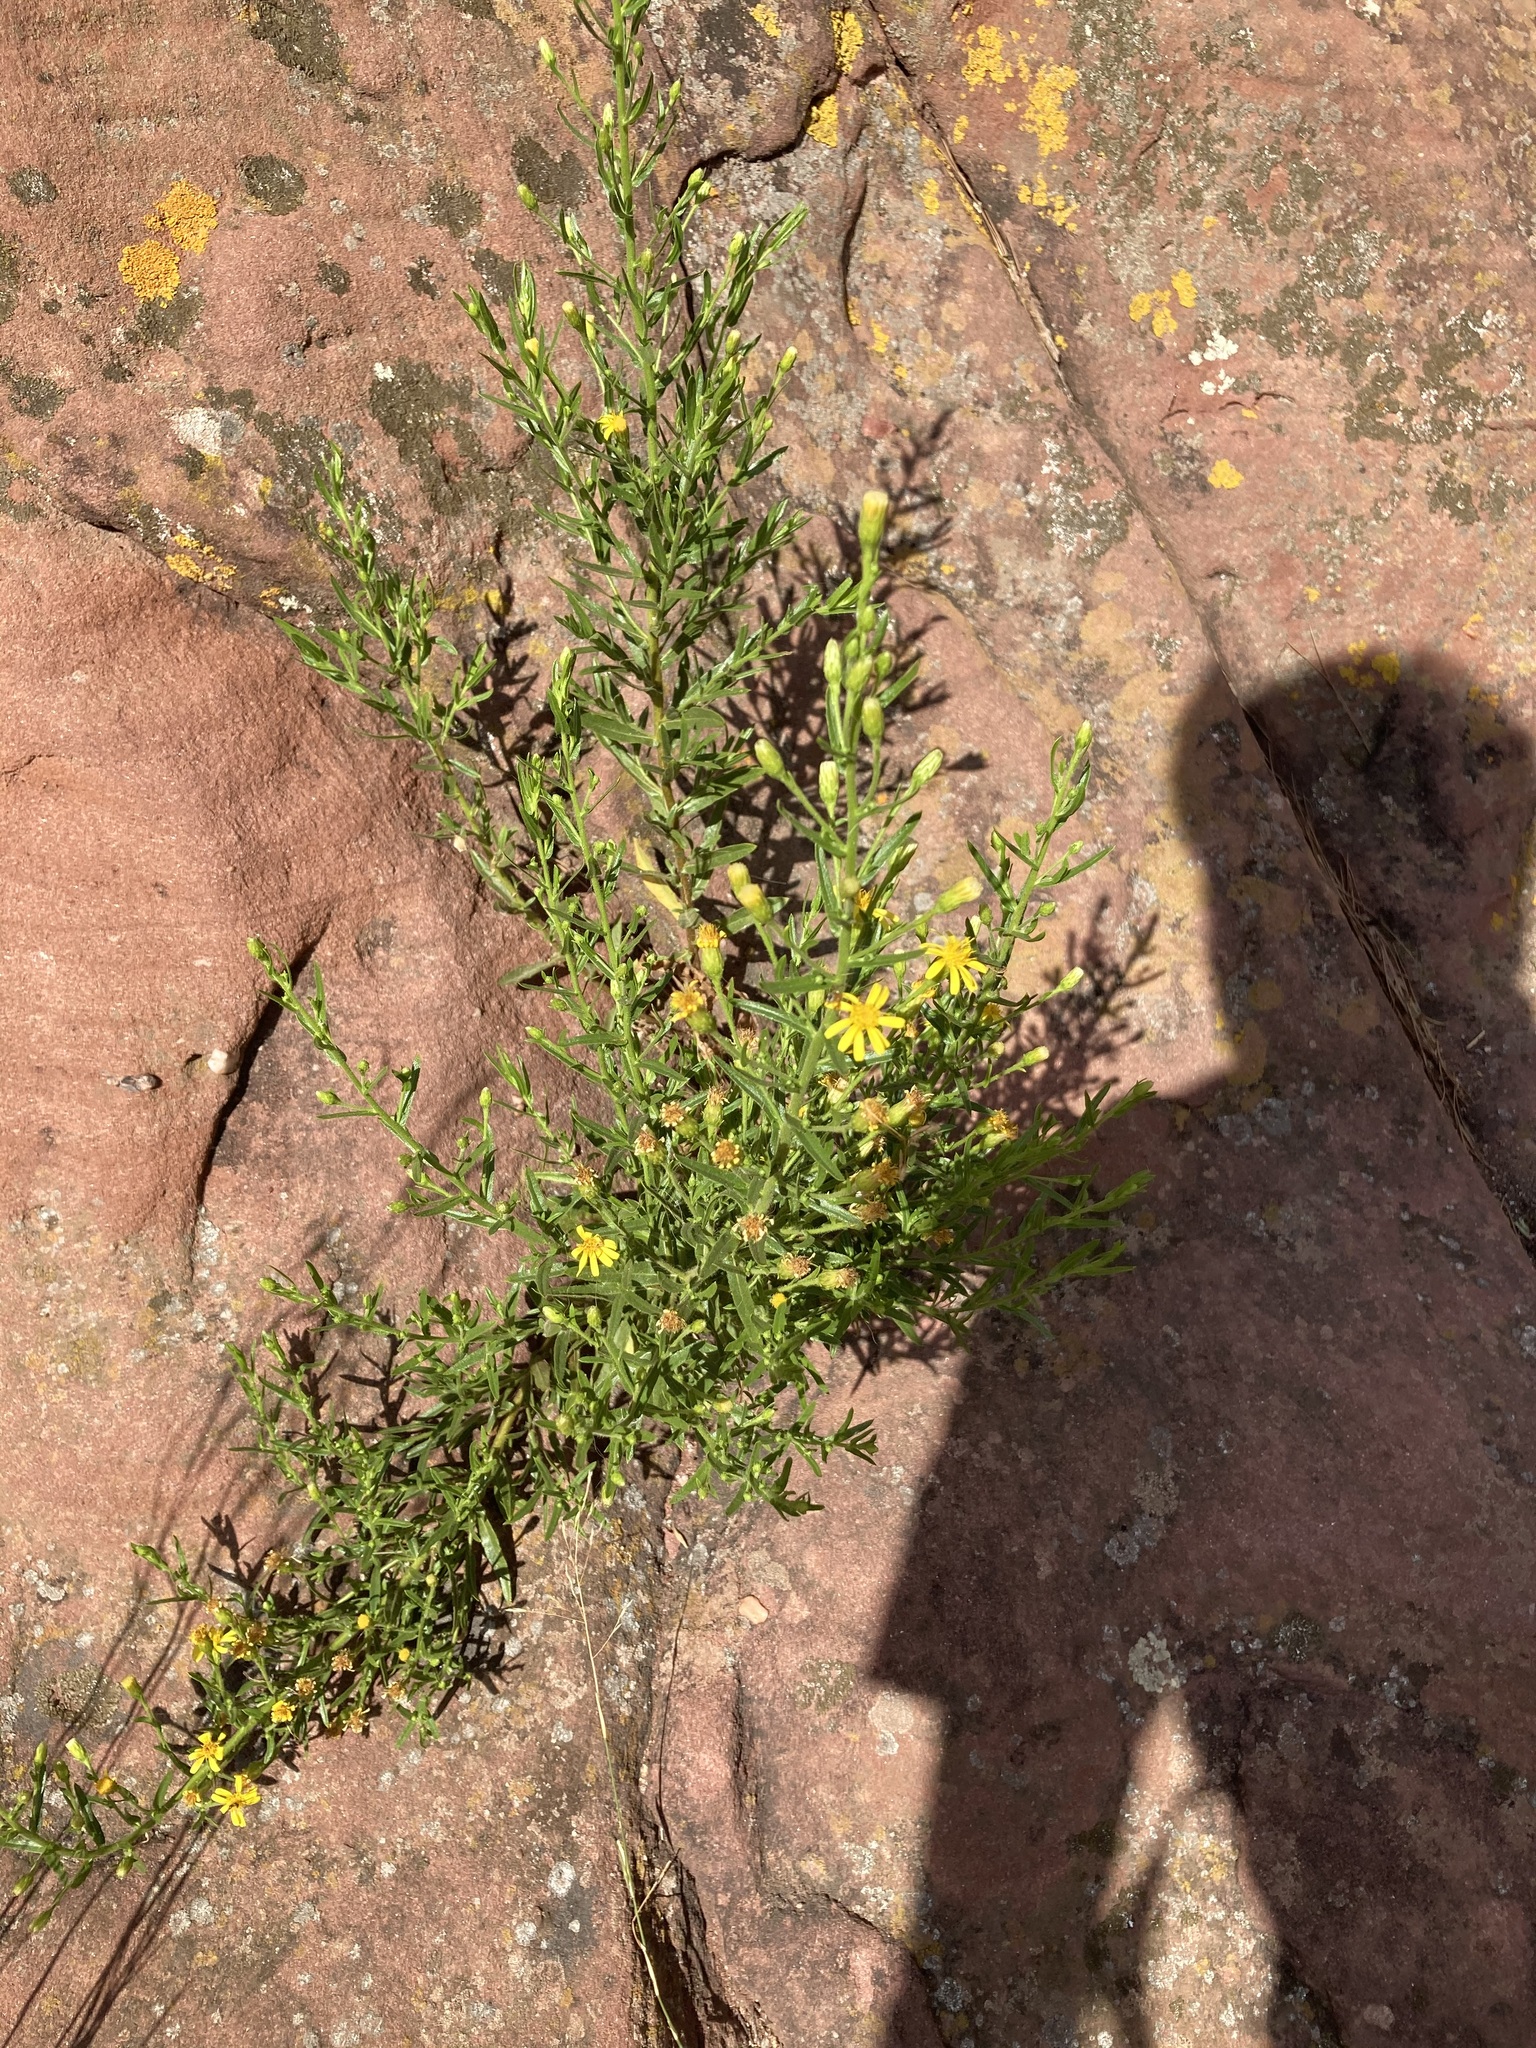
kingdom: Plantae
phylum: Tracheophyta
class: Magnoliopsida
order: Asterales
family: Asteraceae
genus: Dittrichia
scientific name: Dittrichia viscosa
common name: Woody fleabane
